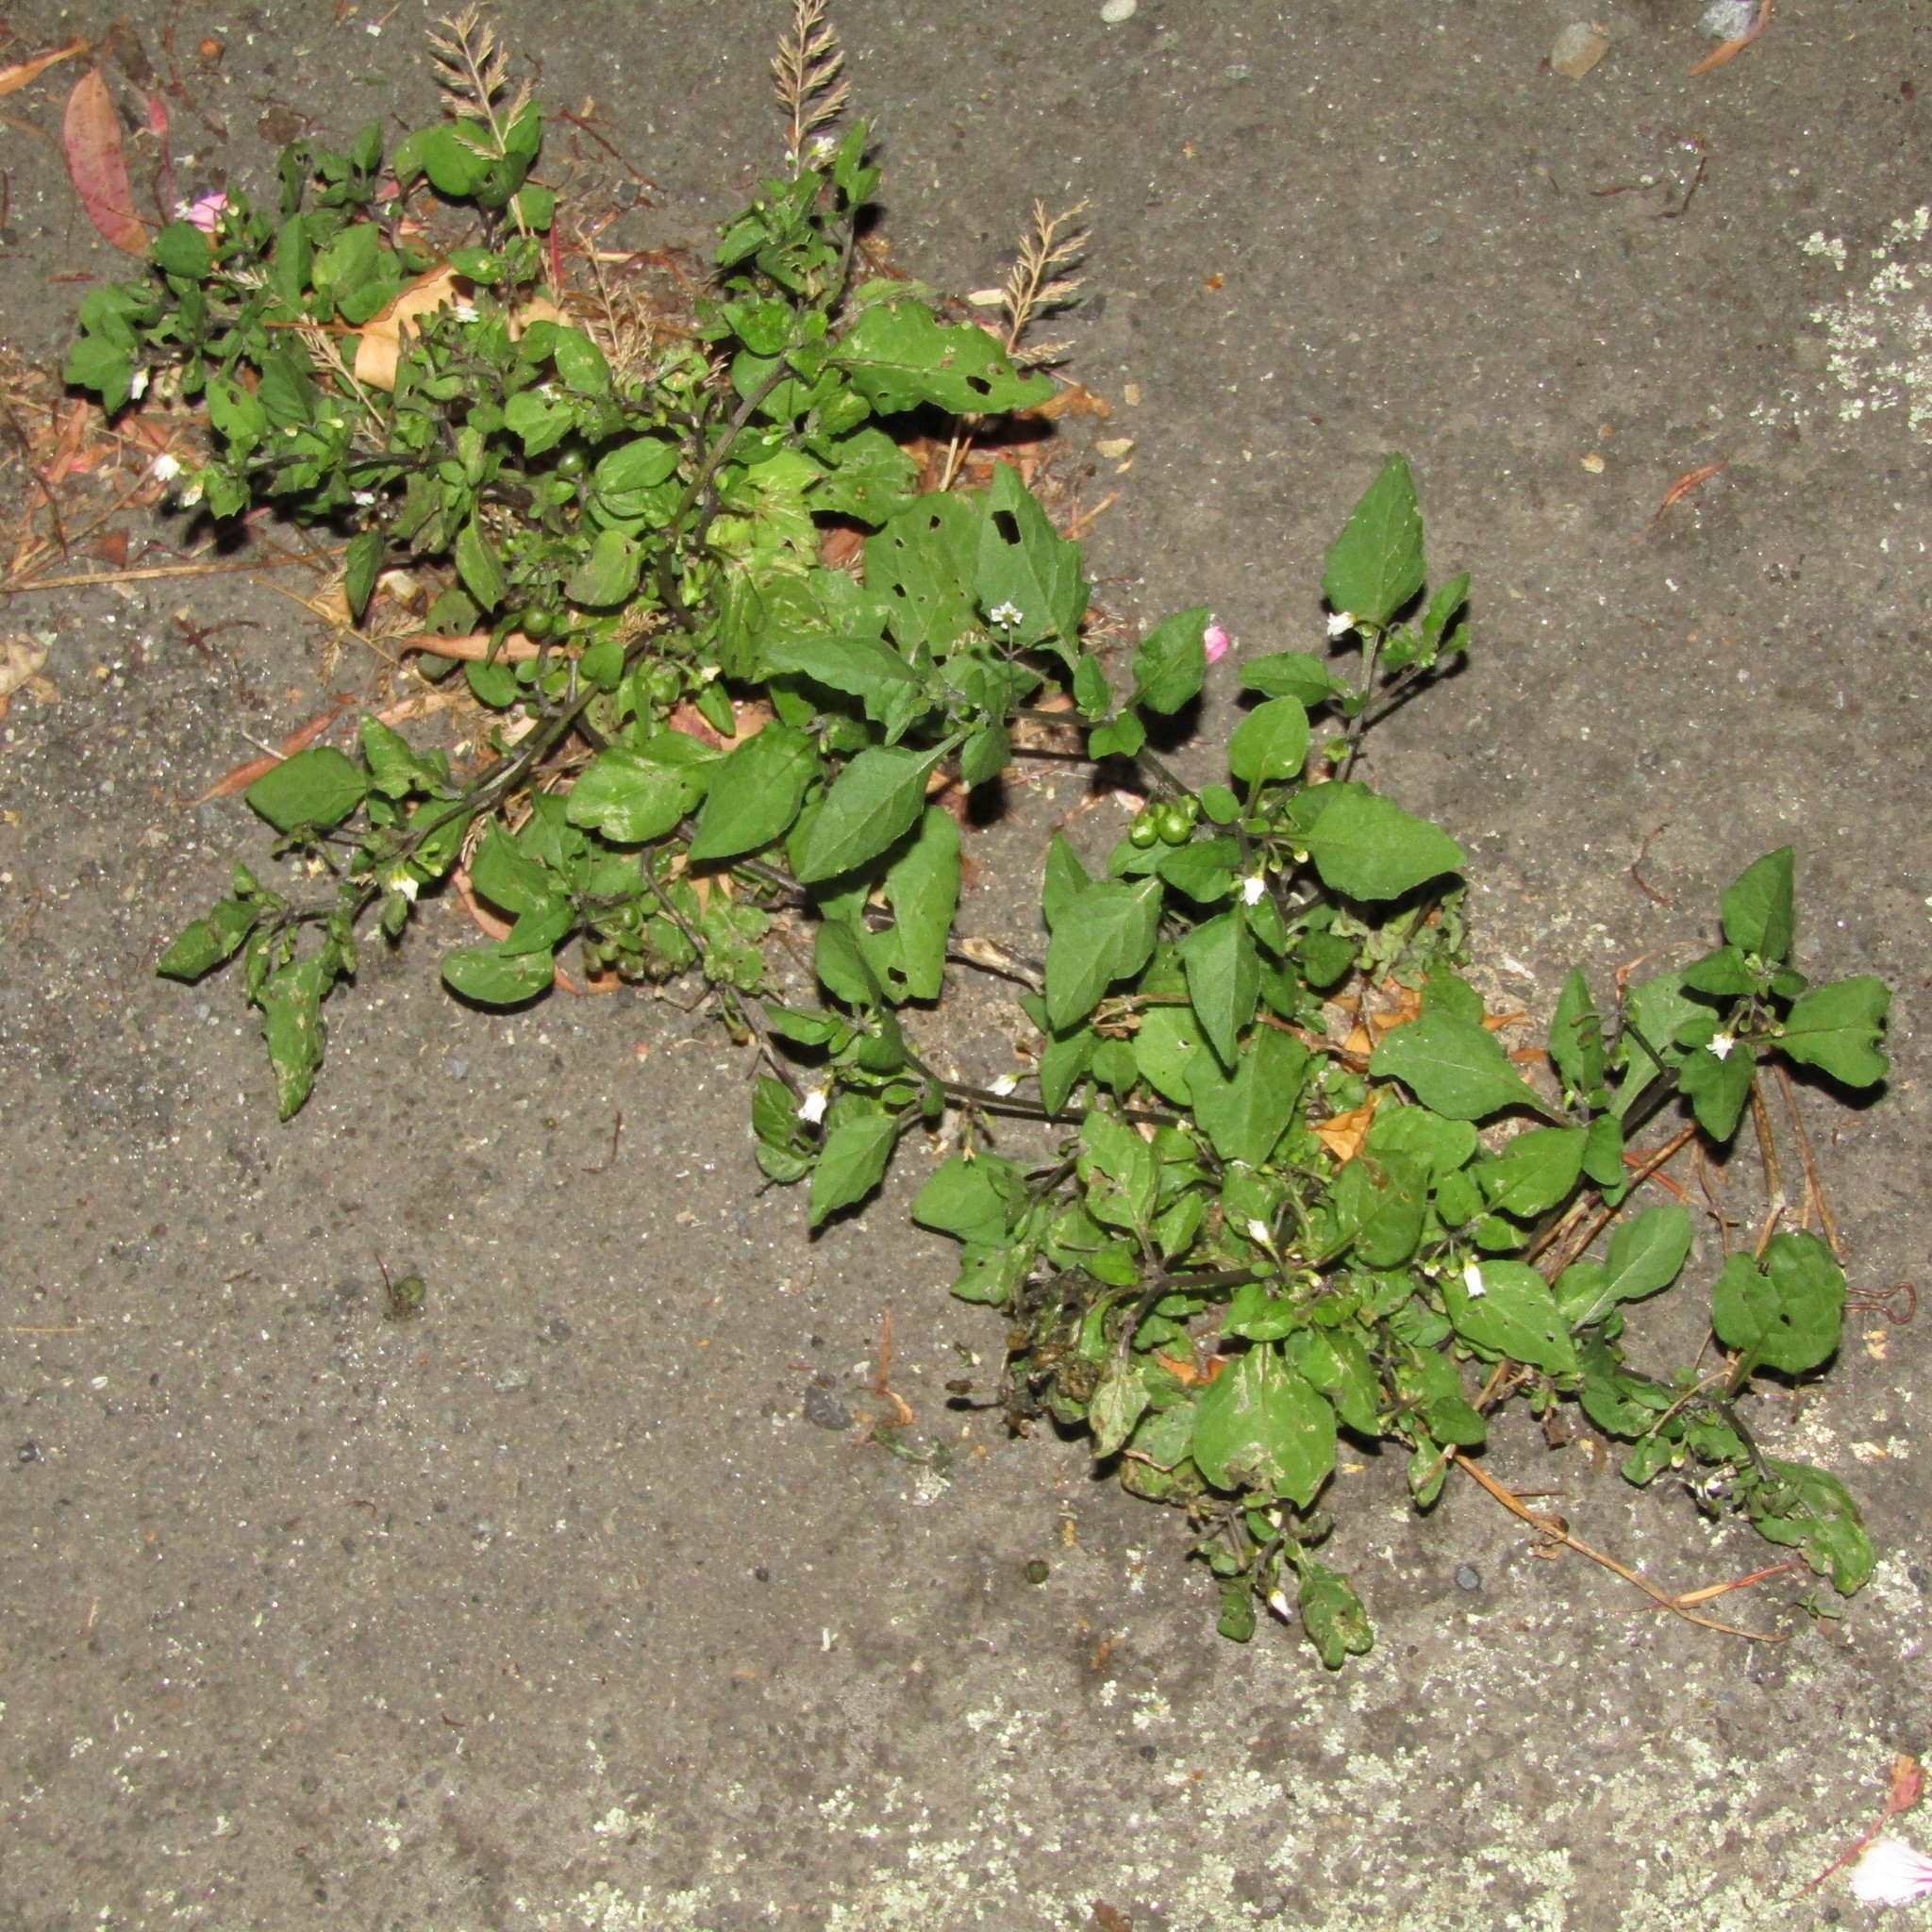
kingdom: Plantae
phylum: Tracheophyta
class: Magnoliopsida
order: Solanales
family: Solanaceae
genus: Solanum
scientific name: Solanum nigrum
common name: Black nightshade
